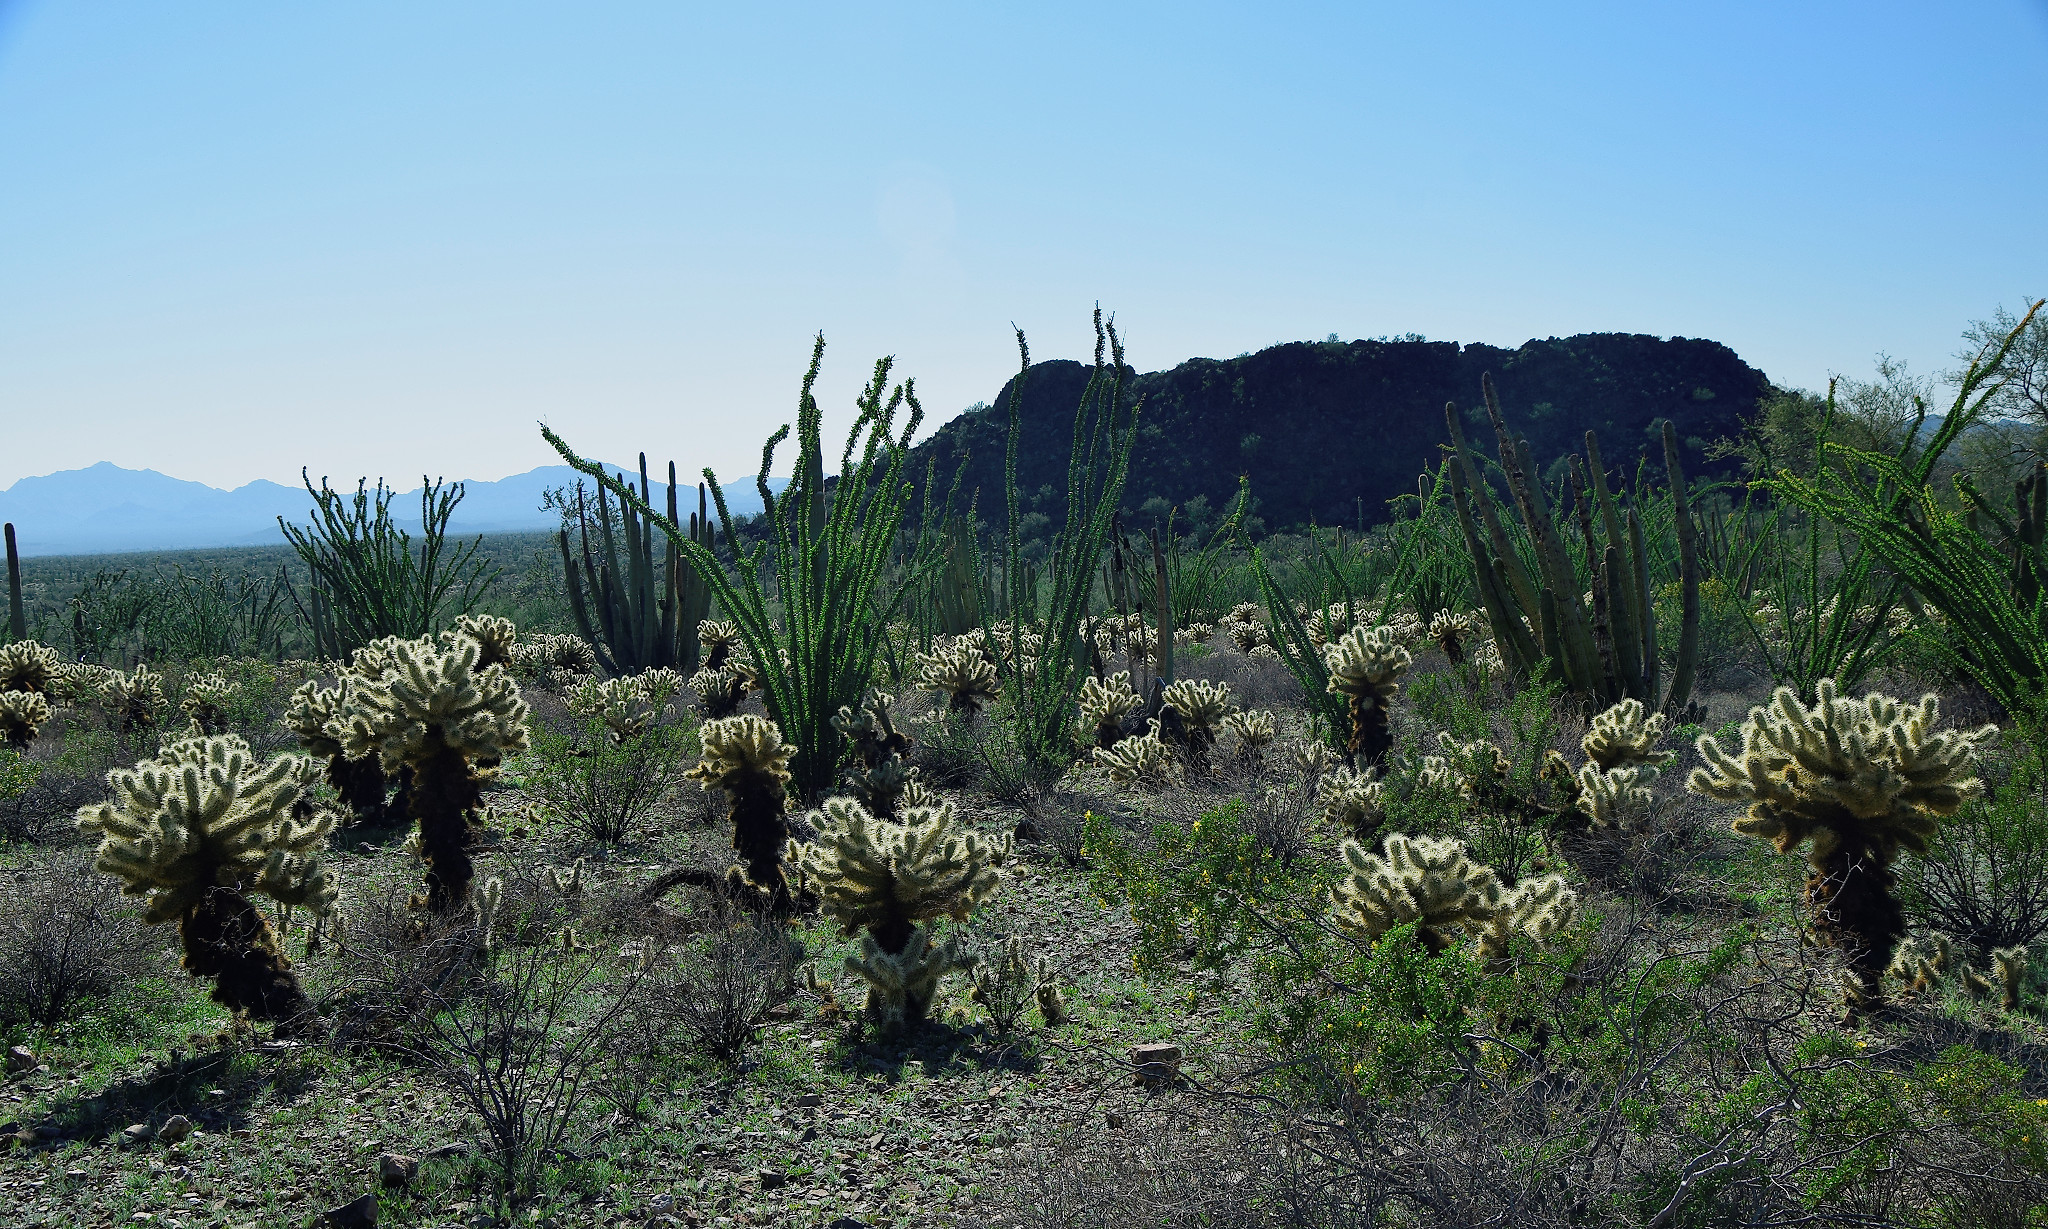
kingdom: Plantae
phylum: Tracheophyta
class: Magnoliopsida
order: Caryophyllales
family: Cactaceae
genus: Cylindropuntia
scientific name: Cylindropuntia fosbergii
